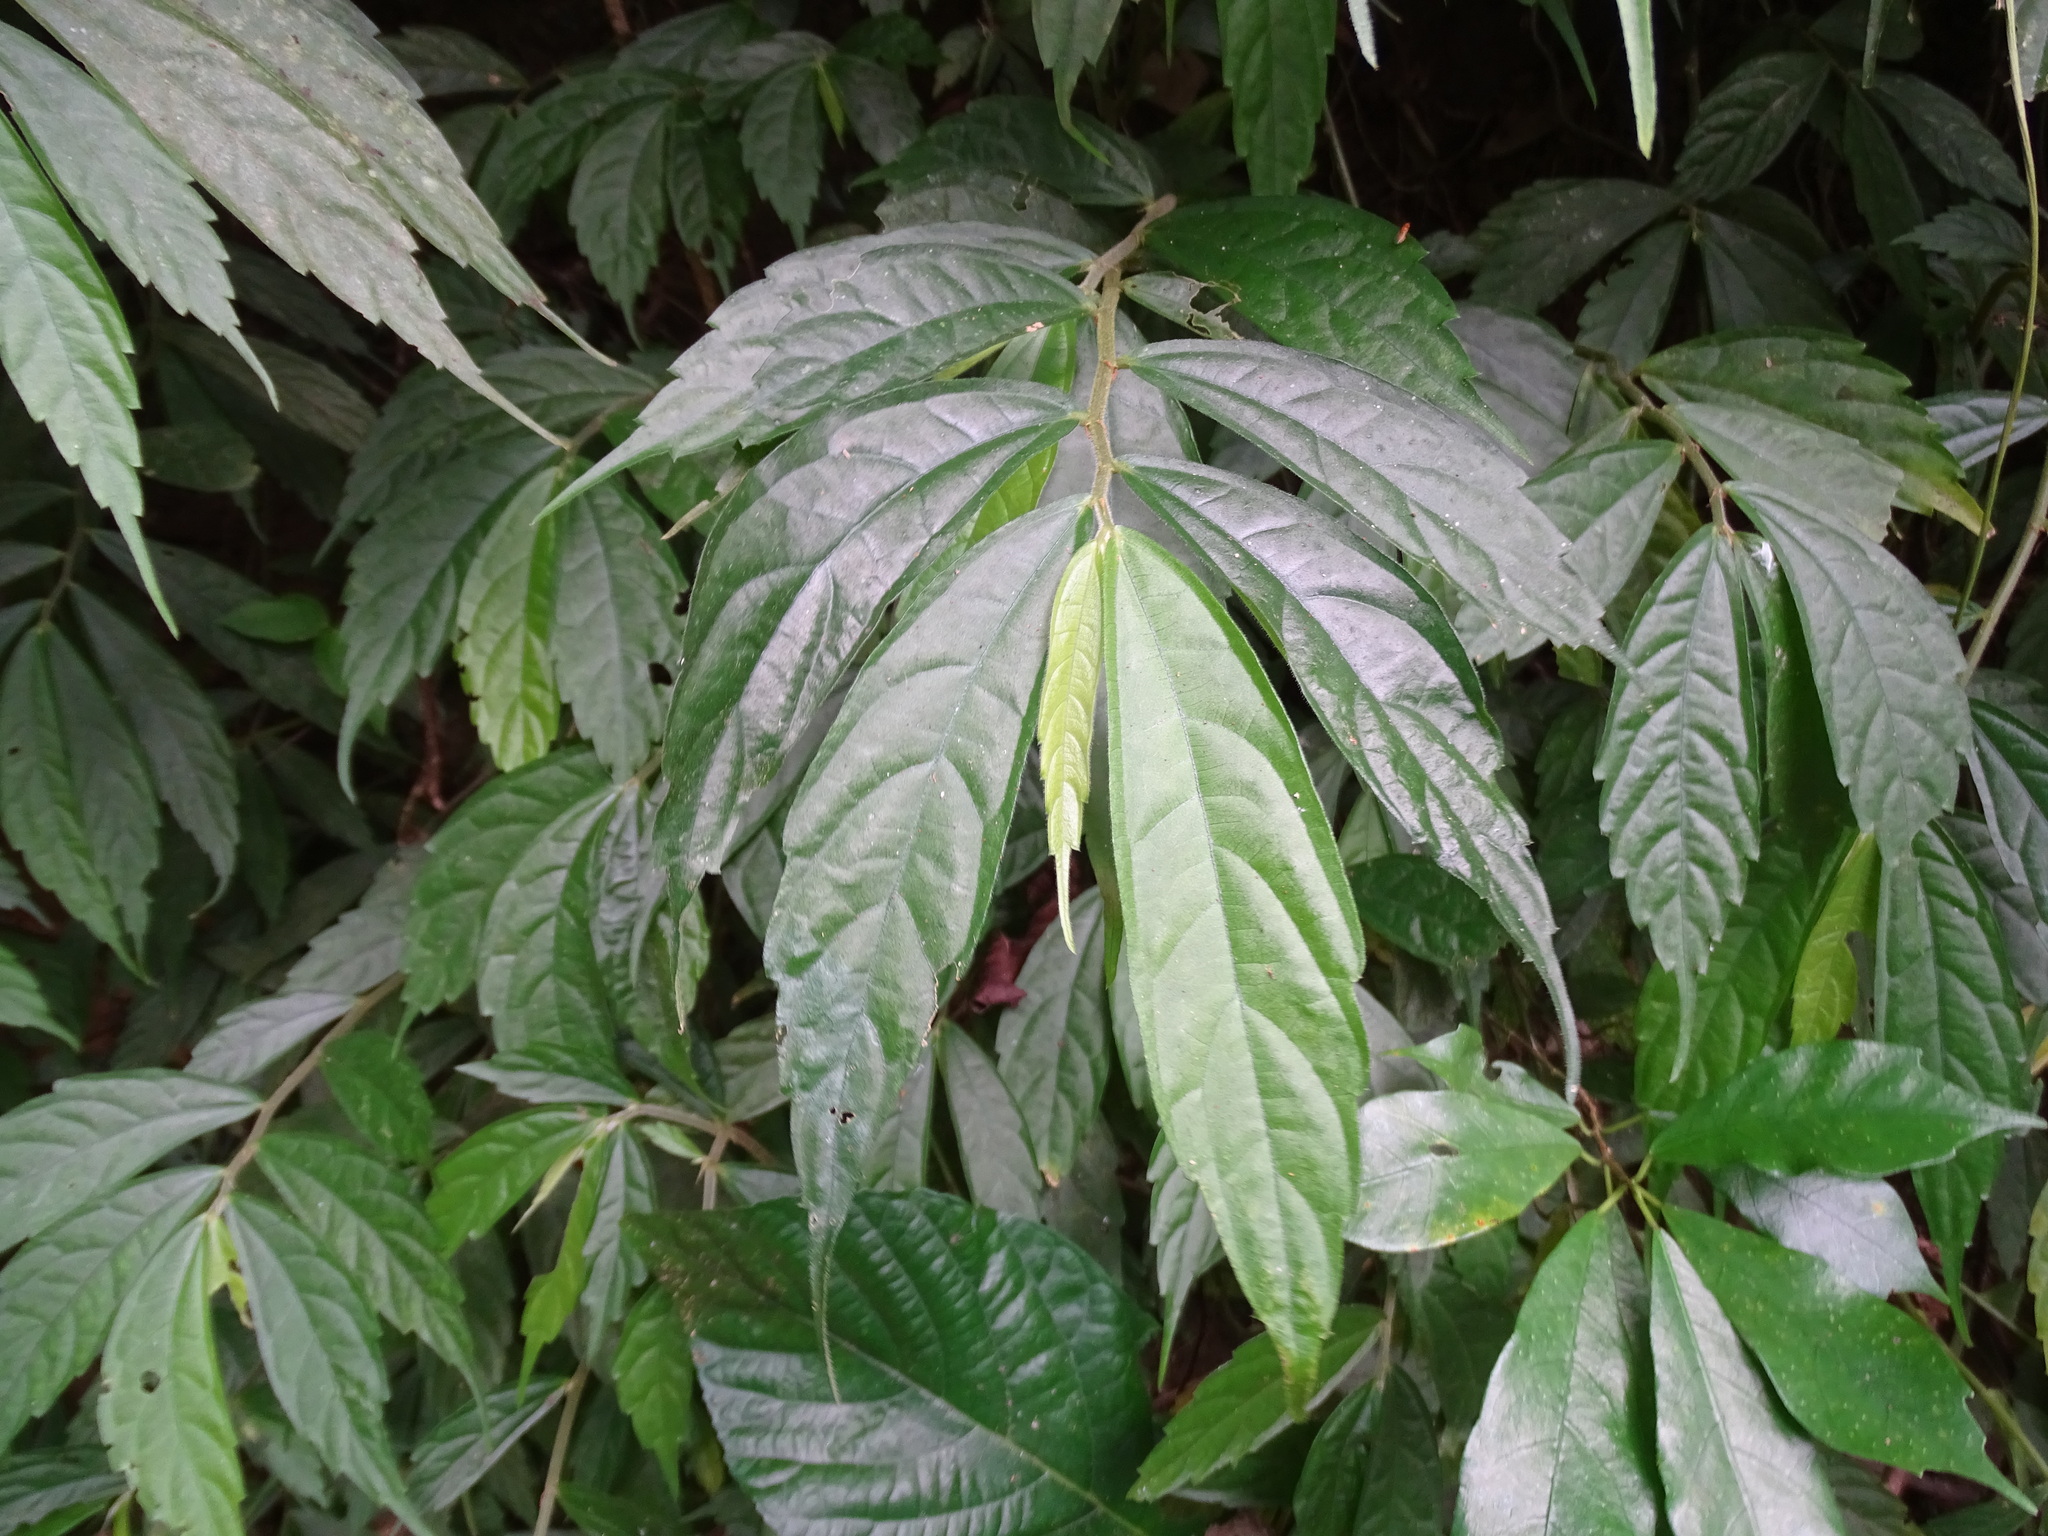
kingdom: Plantae
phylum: Tracheophyta
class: Magnoliopsida
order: Rosales
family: Urticaceae
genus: Elatostema
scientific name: Elatostema lineolatum
